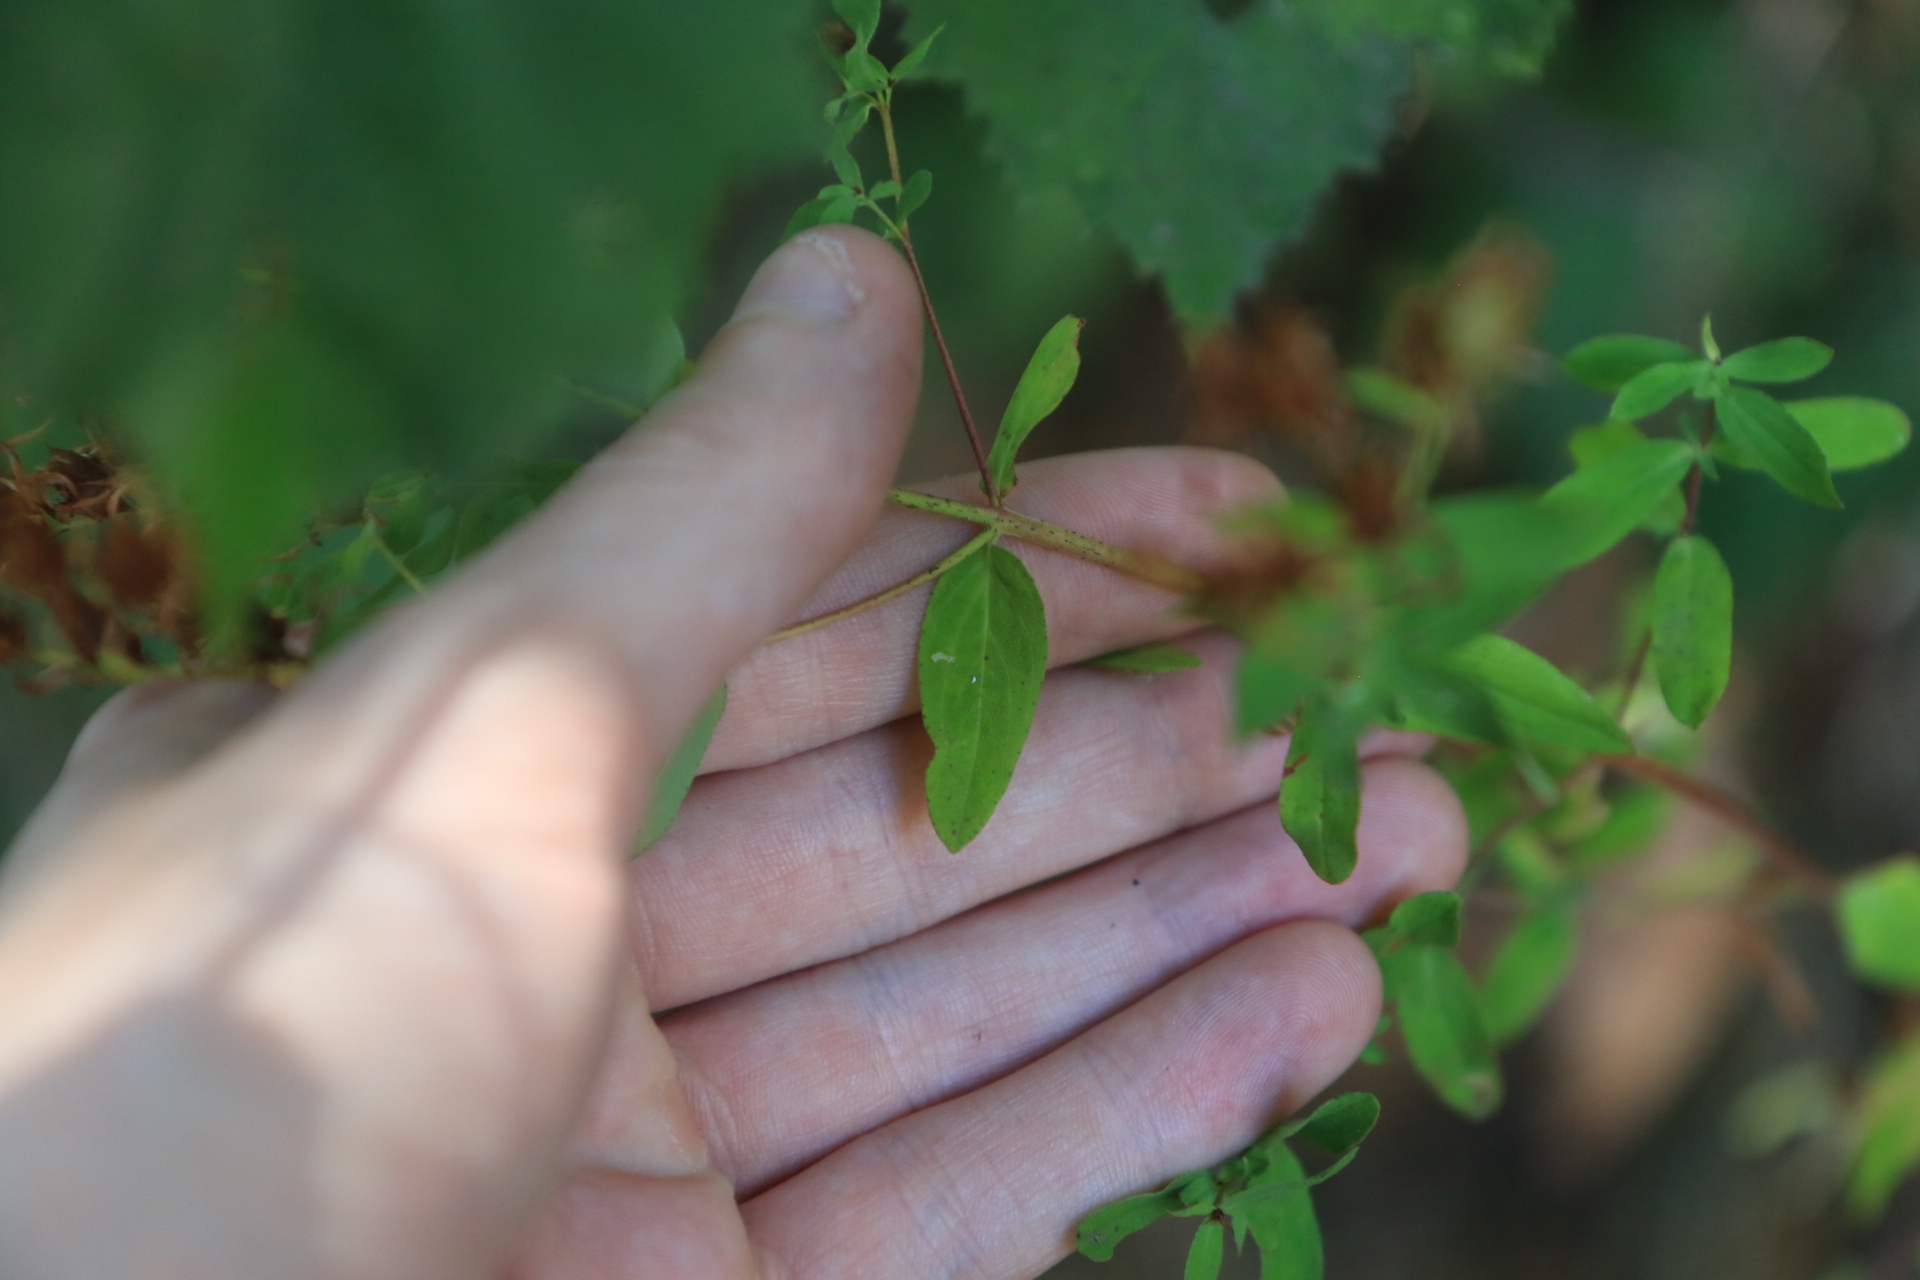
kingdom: Plantae
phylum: Tracheophyta
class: Magnoliopsida
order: Malpighiales
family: Hypericaceae
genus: Hypericum
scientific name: Hypericum perforatum
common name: Common st. johnswort
